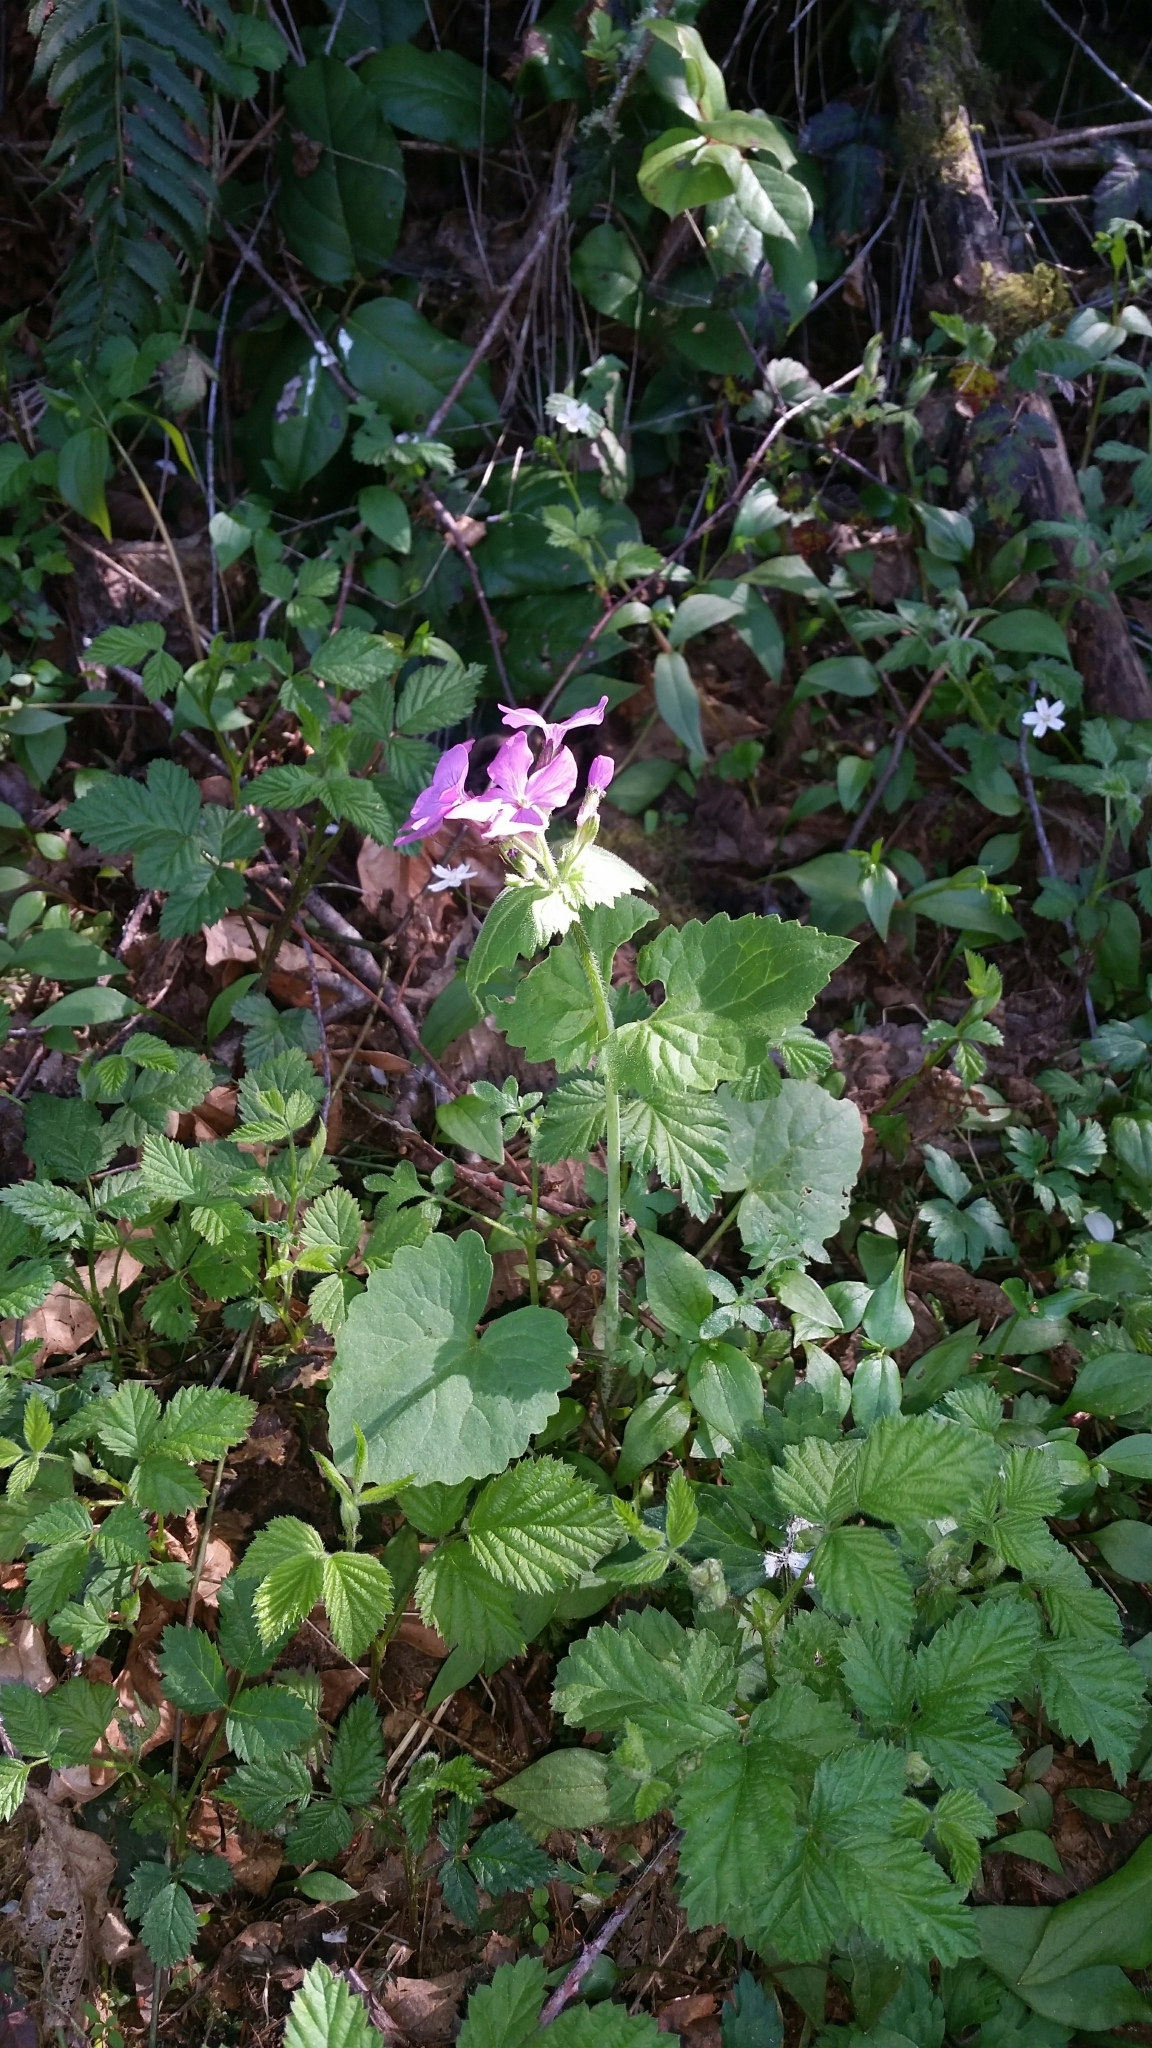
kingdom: Plantae
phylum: Tracheophyta
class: Magnoliopsida
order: Brassicales
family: Brassicaceae
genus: Lunaria
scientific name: Lunaria annua
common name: Honesty
